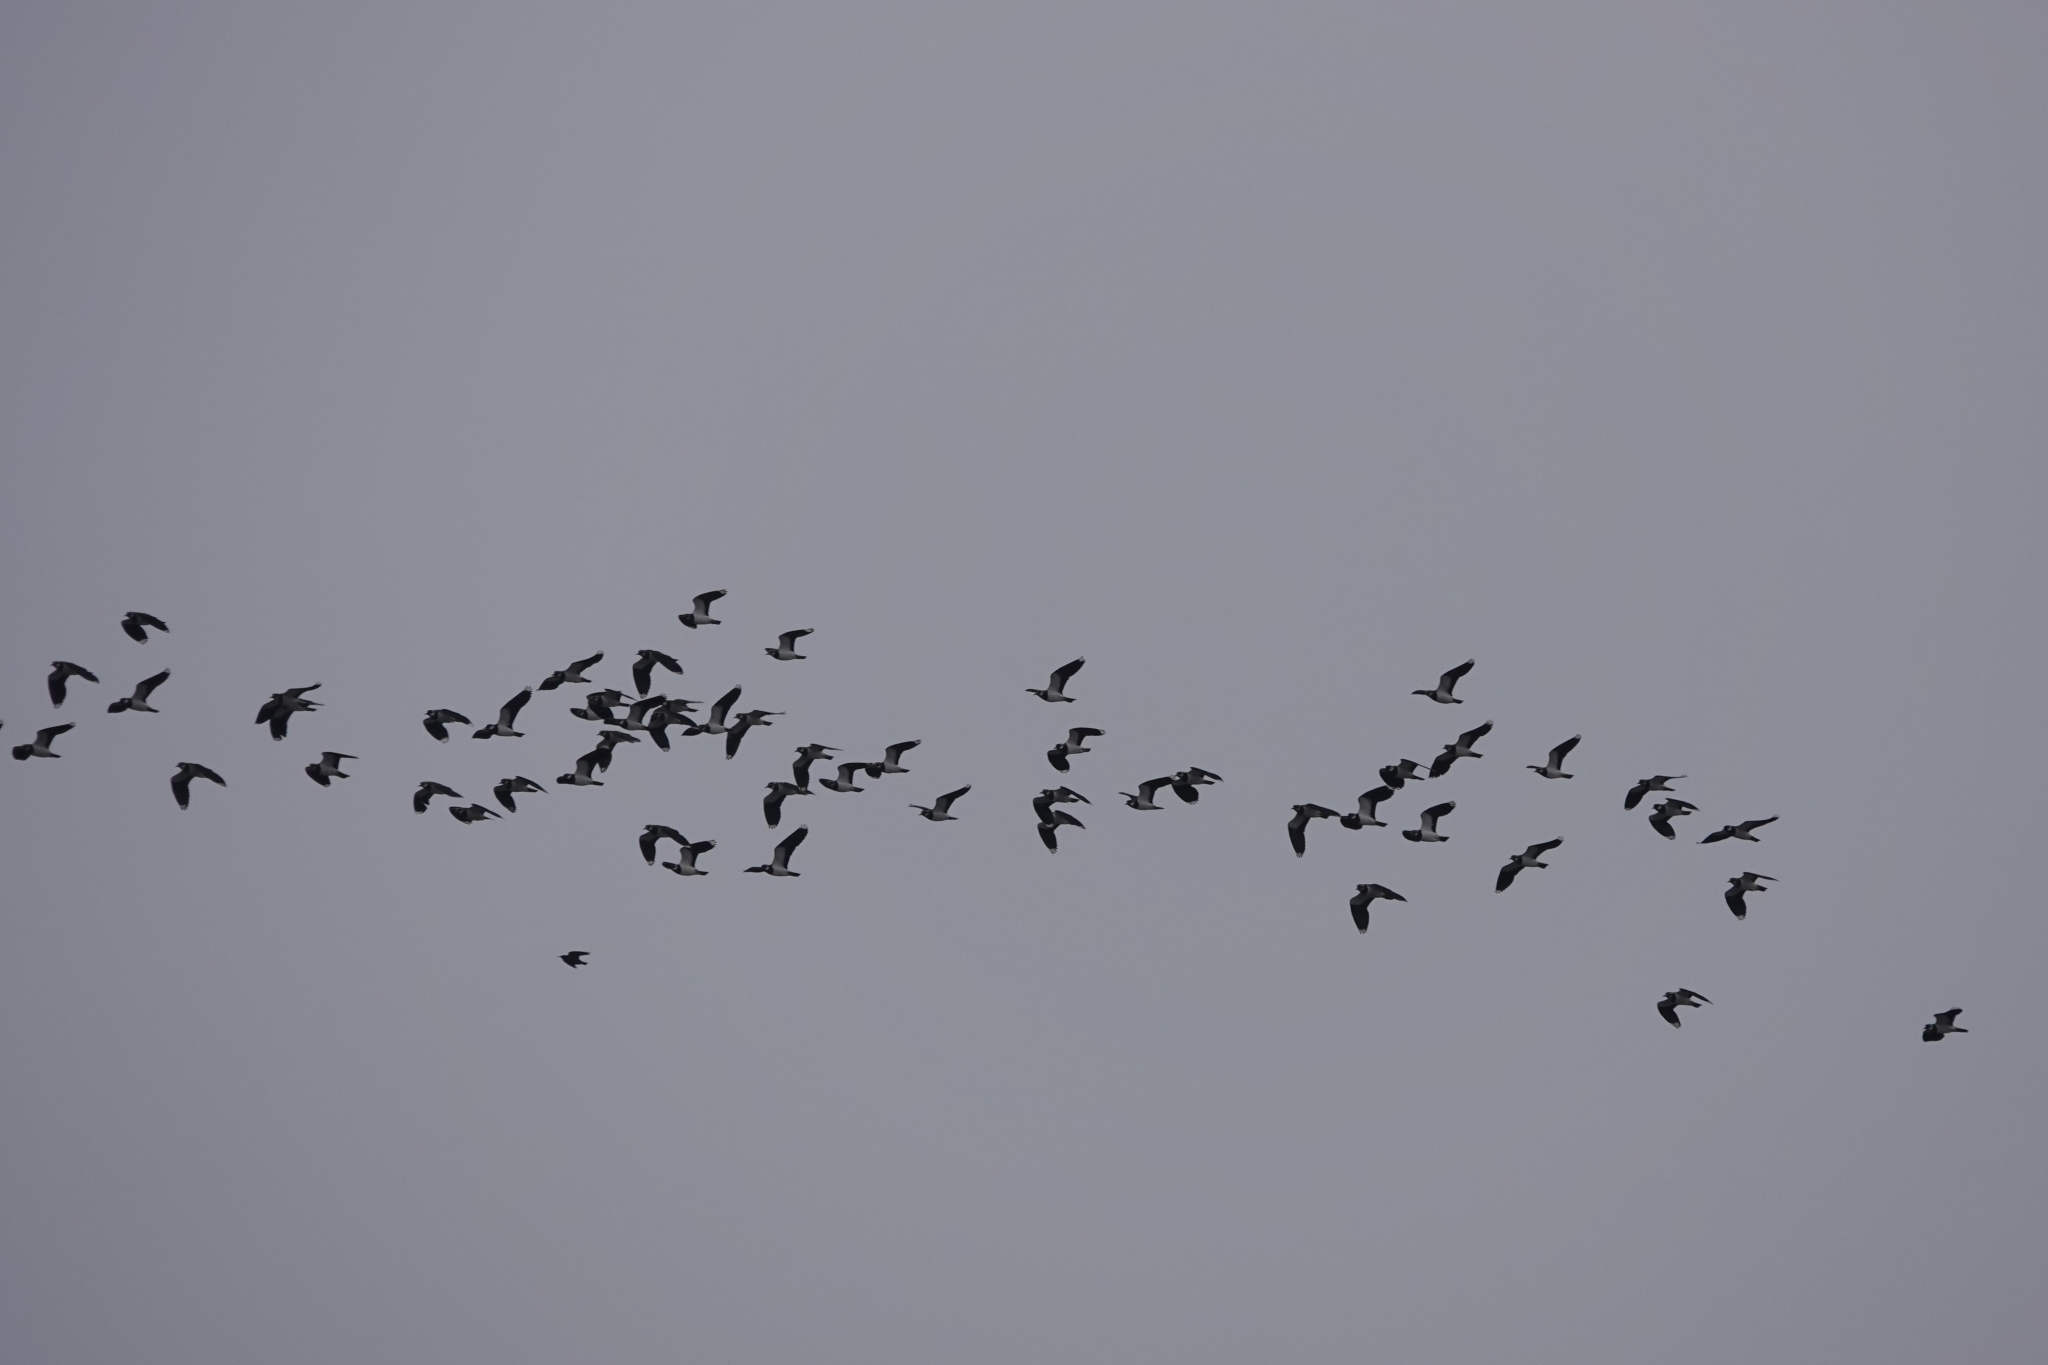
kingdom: Animalia
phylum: Chordata
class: Aves
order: Charadriiformes
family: Charadriidae
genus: Vanellus
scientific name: Vanellus vanellus
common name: Northern lapwing
